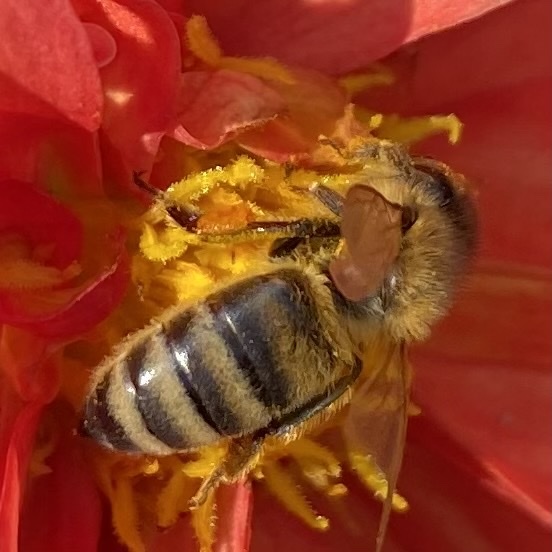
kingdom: Animalia
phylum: Arthropoda
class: Insecta
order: Hymenoptera
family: Apidae
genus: Apis
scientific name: Apis mellifera
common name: Honey bee
